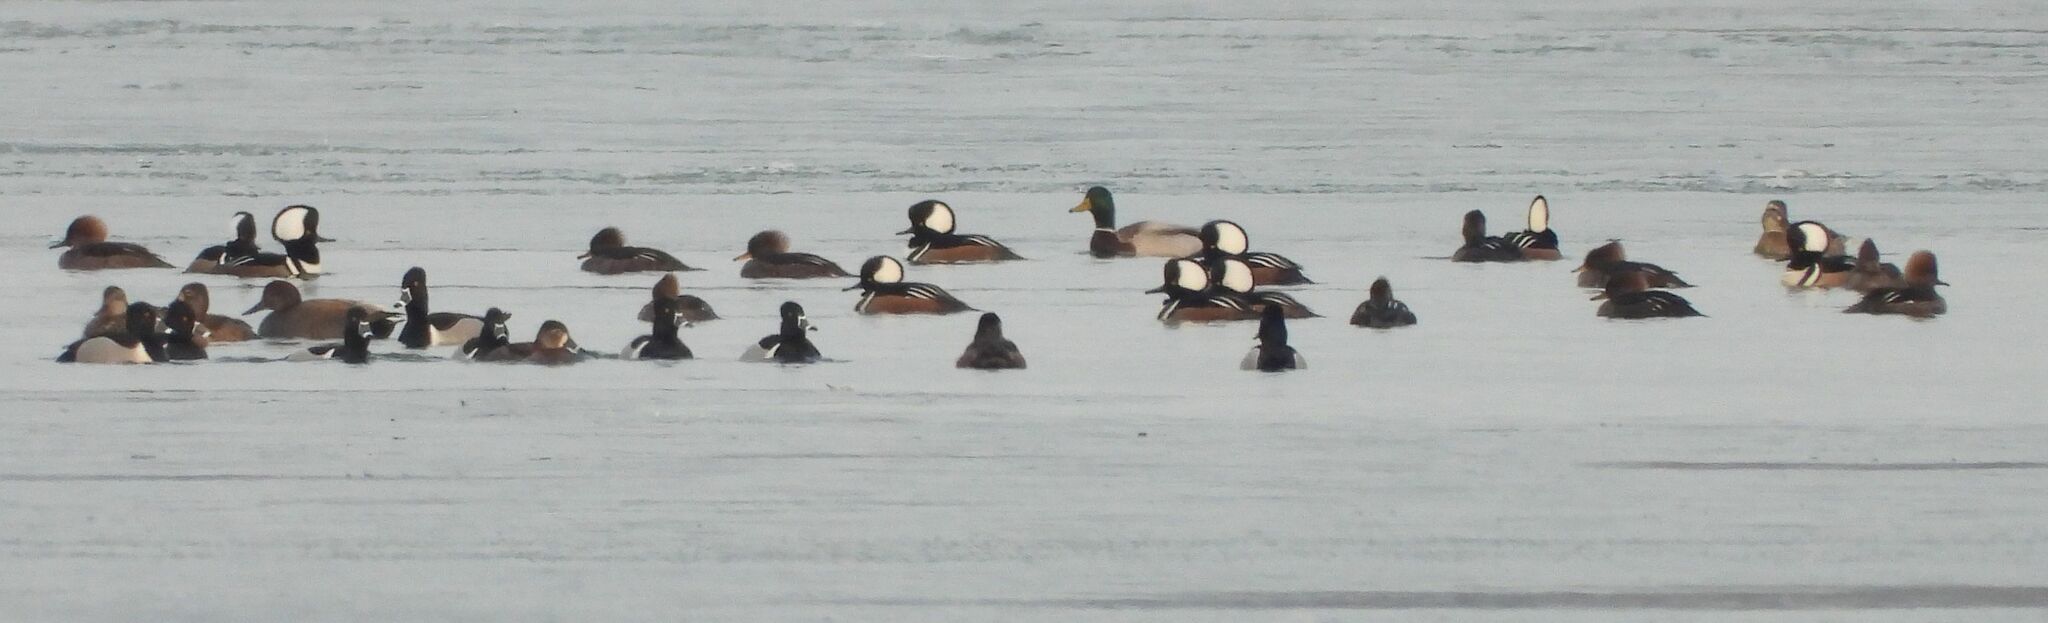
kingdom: Animalia
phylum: Chordata
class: Aves
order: Anseriformes
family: Anatidae
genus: Lophodytes
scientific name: Lophodytes cucullatus
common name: Hooded merganser
